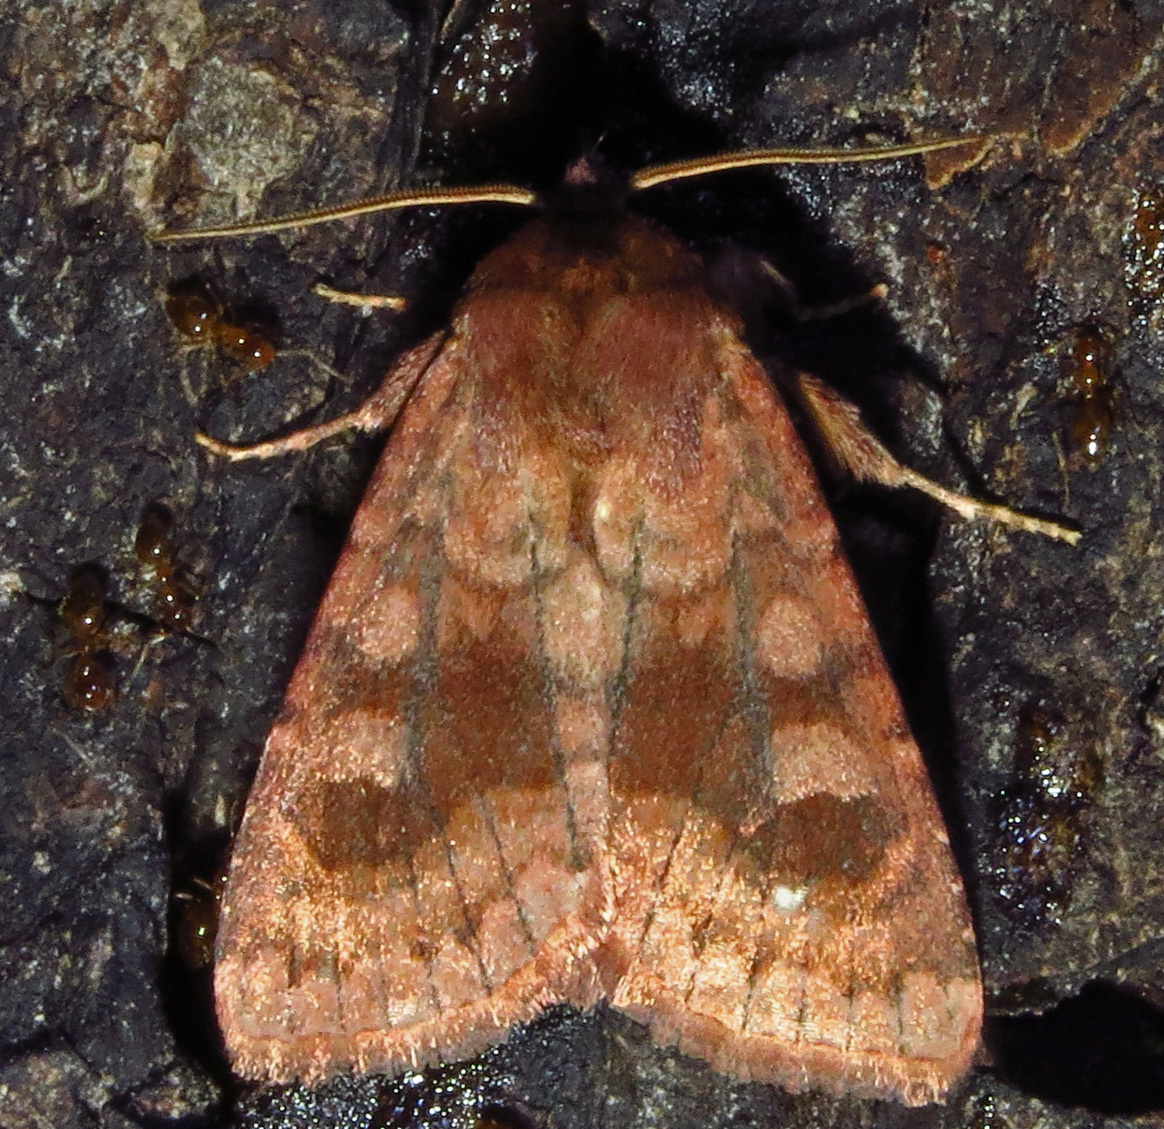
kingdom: Animalia
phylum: Arthropoda
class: Insecta
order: Lepidoptera
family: Noctuidae
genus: Nephelodes
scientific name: Nephelodes minians
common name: Bronzed cutworm
